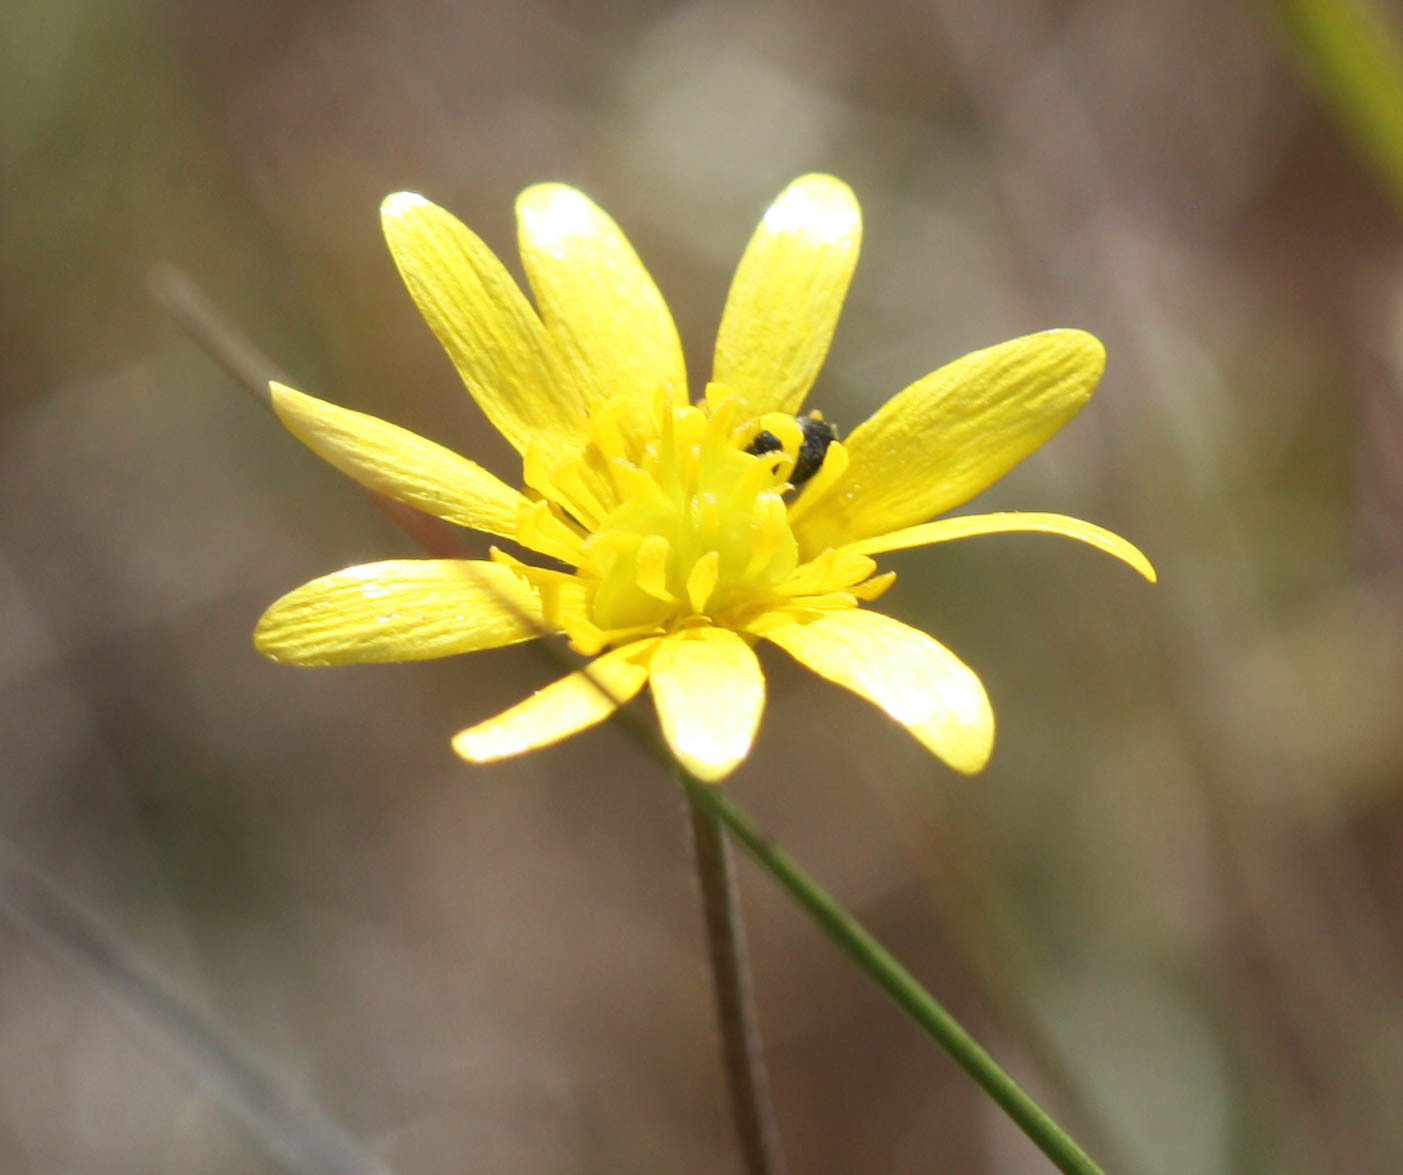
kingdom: Plantae
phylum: Tracheophyta
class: Magnoliopsida
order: Ranunculales
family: Ranunculaceae
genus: Ranunculus
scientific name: Ranunculus californicus
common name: California buttercup
